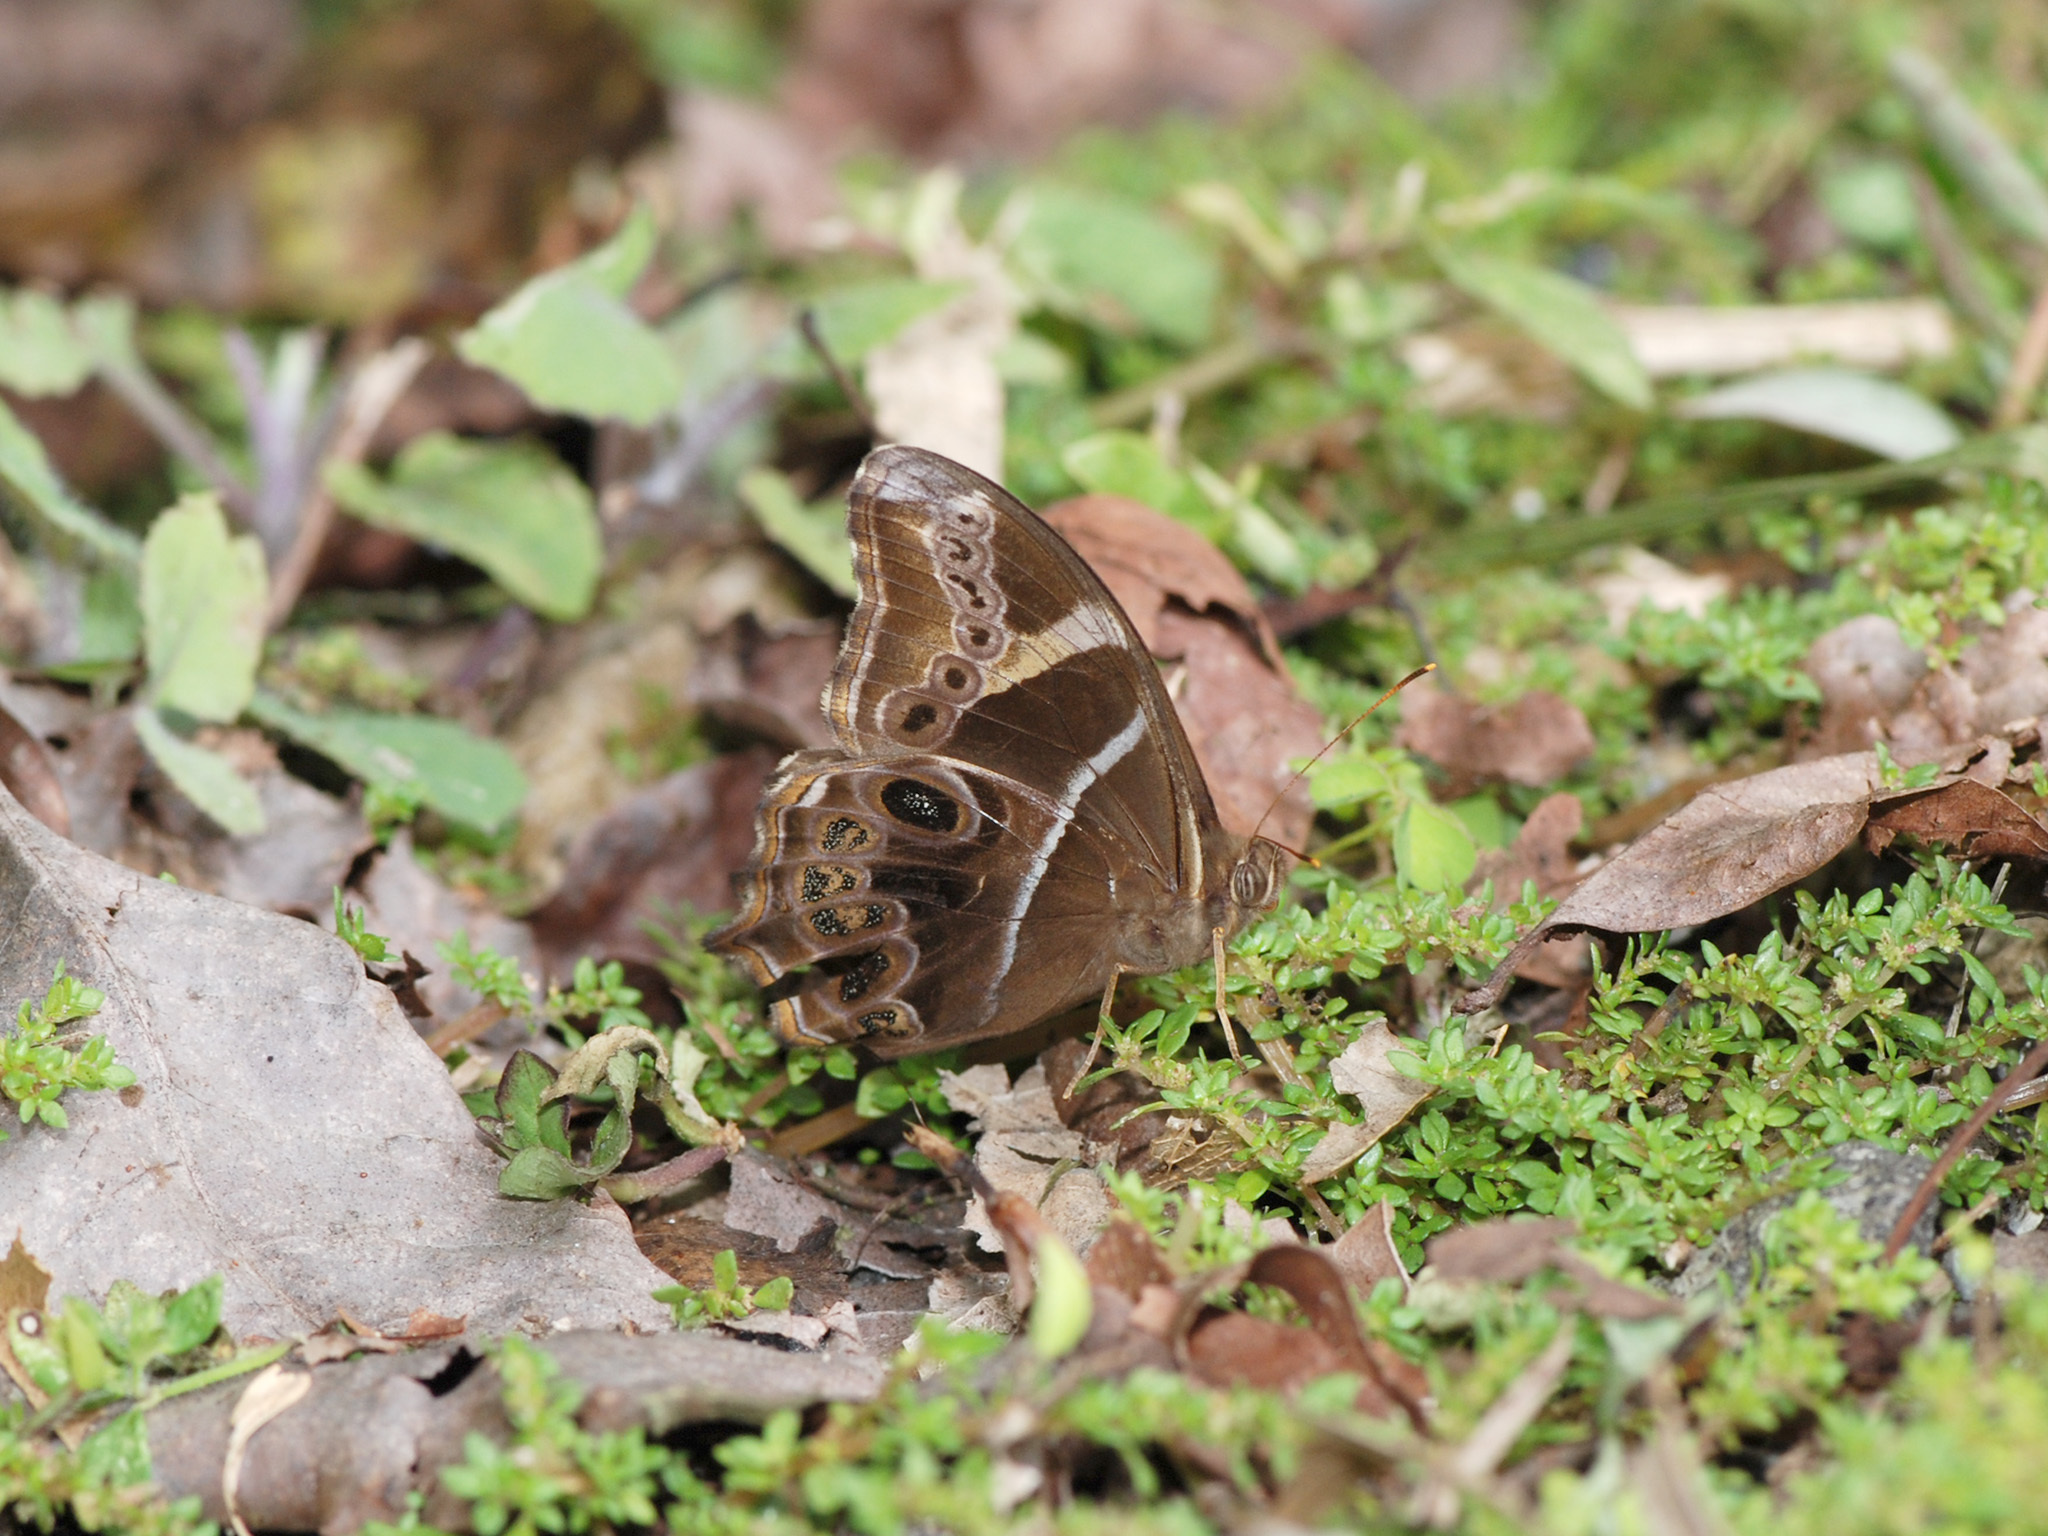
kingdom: Animalia
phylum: Arthropoda
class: Insecta
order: Lepidoptera
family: Nymphalidae
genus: Lethe
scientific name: Lethe europa
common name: Bamboo treebrown
